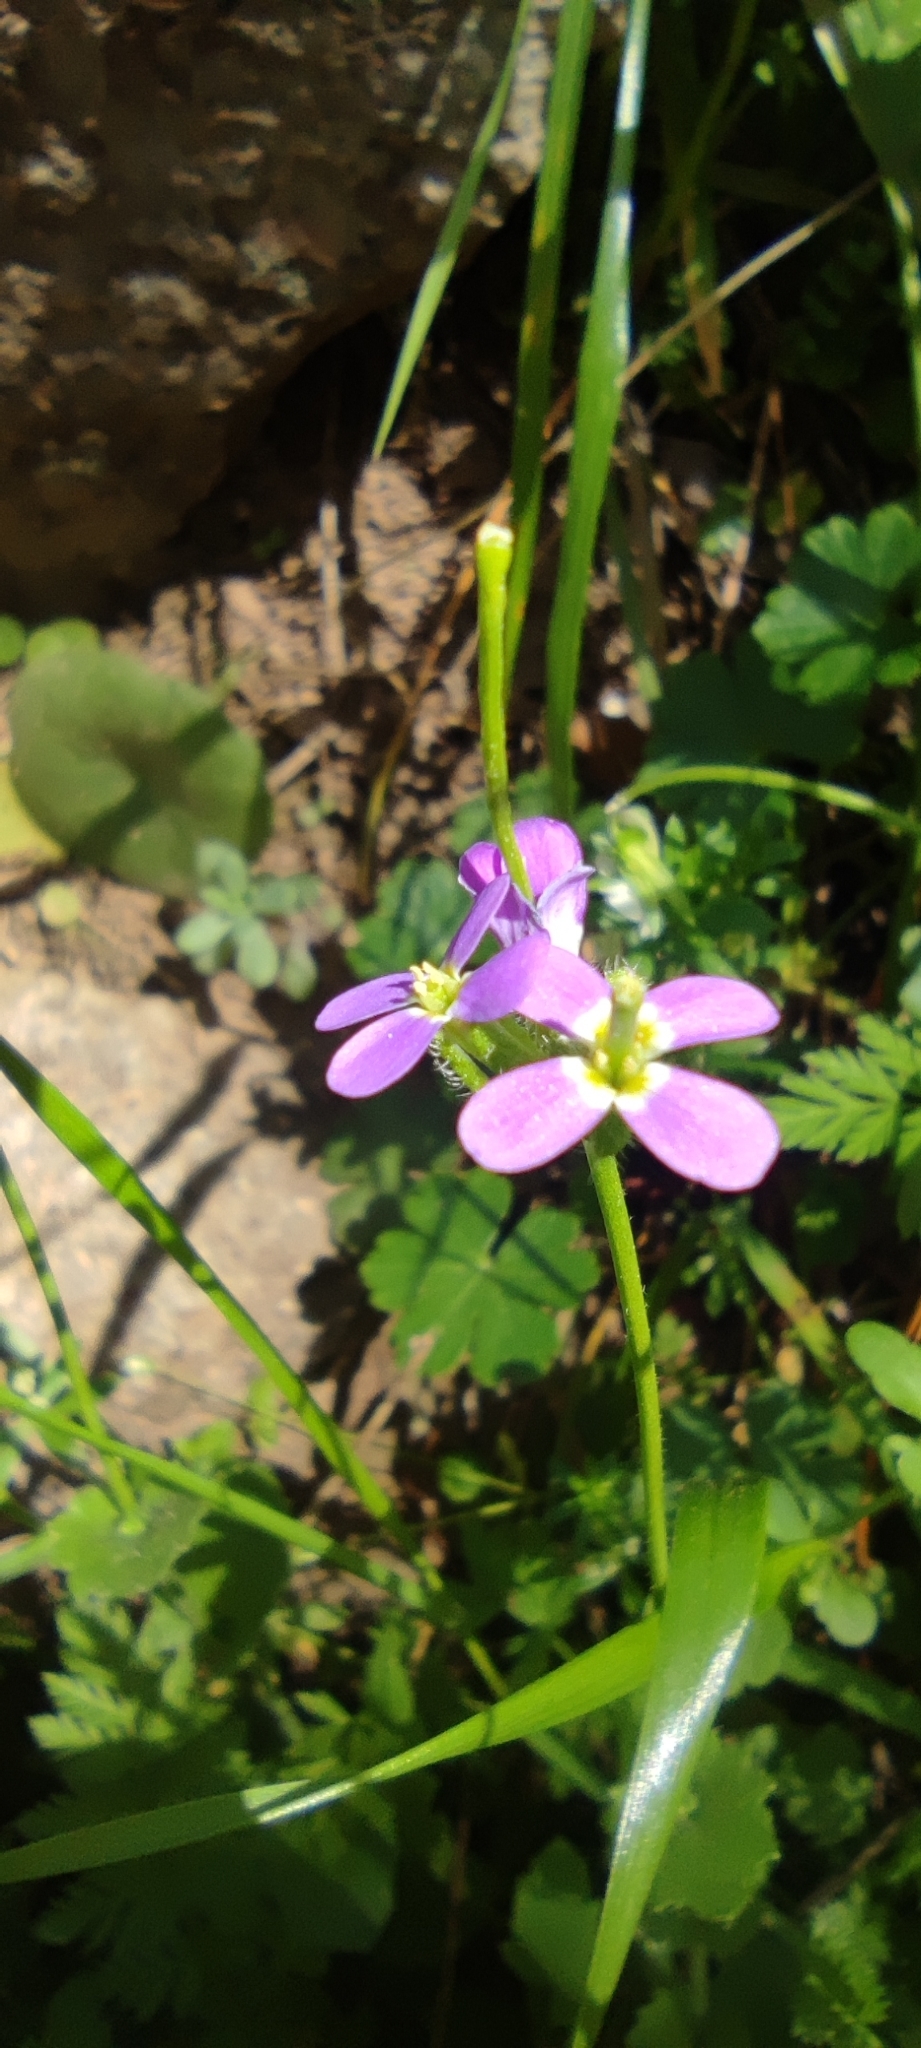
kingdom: Plantae
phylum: Tracheophyta
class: Magnoliopsida
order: Brassicales
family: Brassicaceae
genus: Arabis
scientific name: Arabis verna
